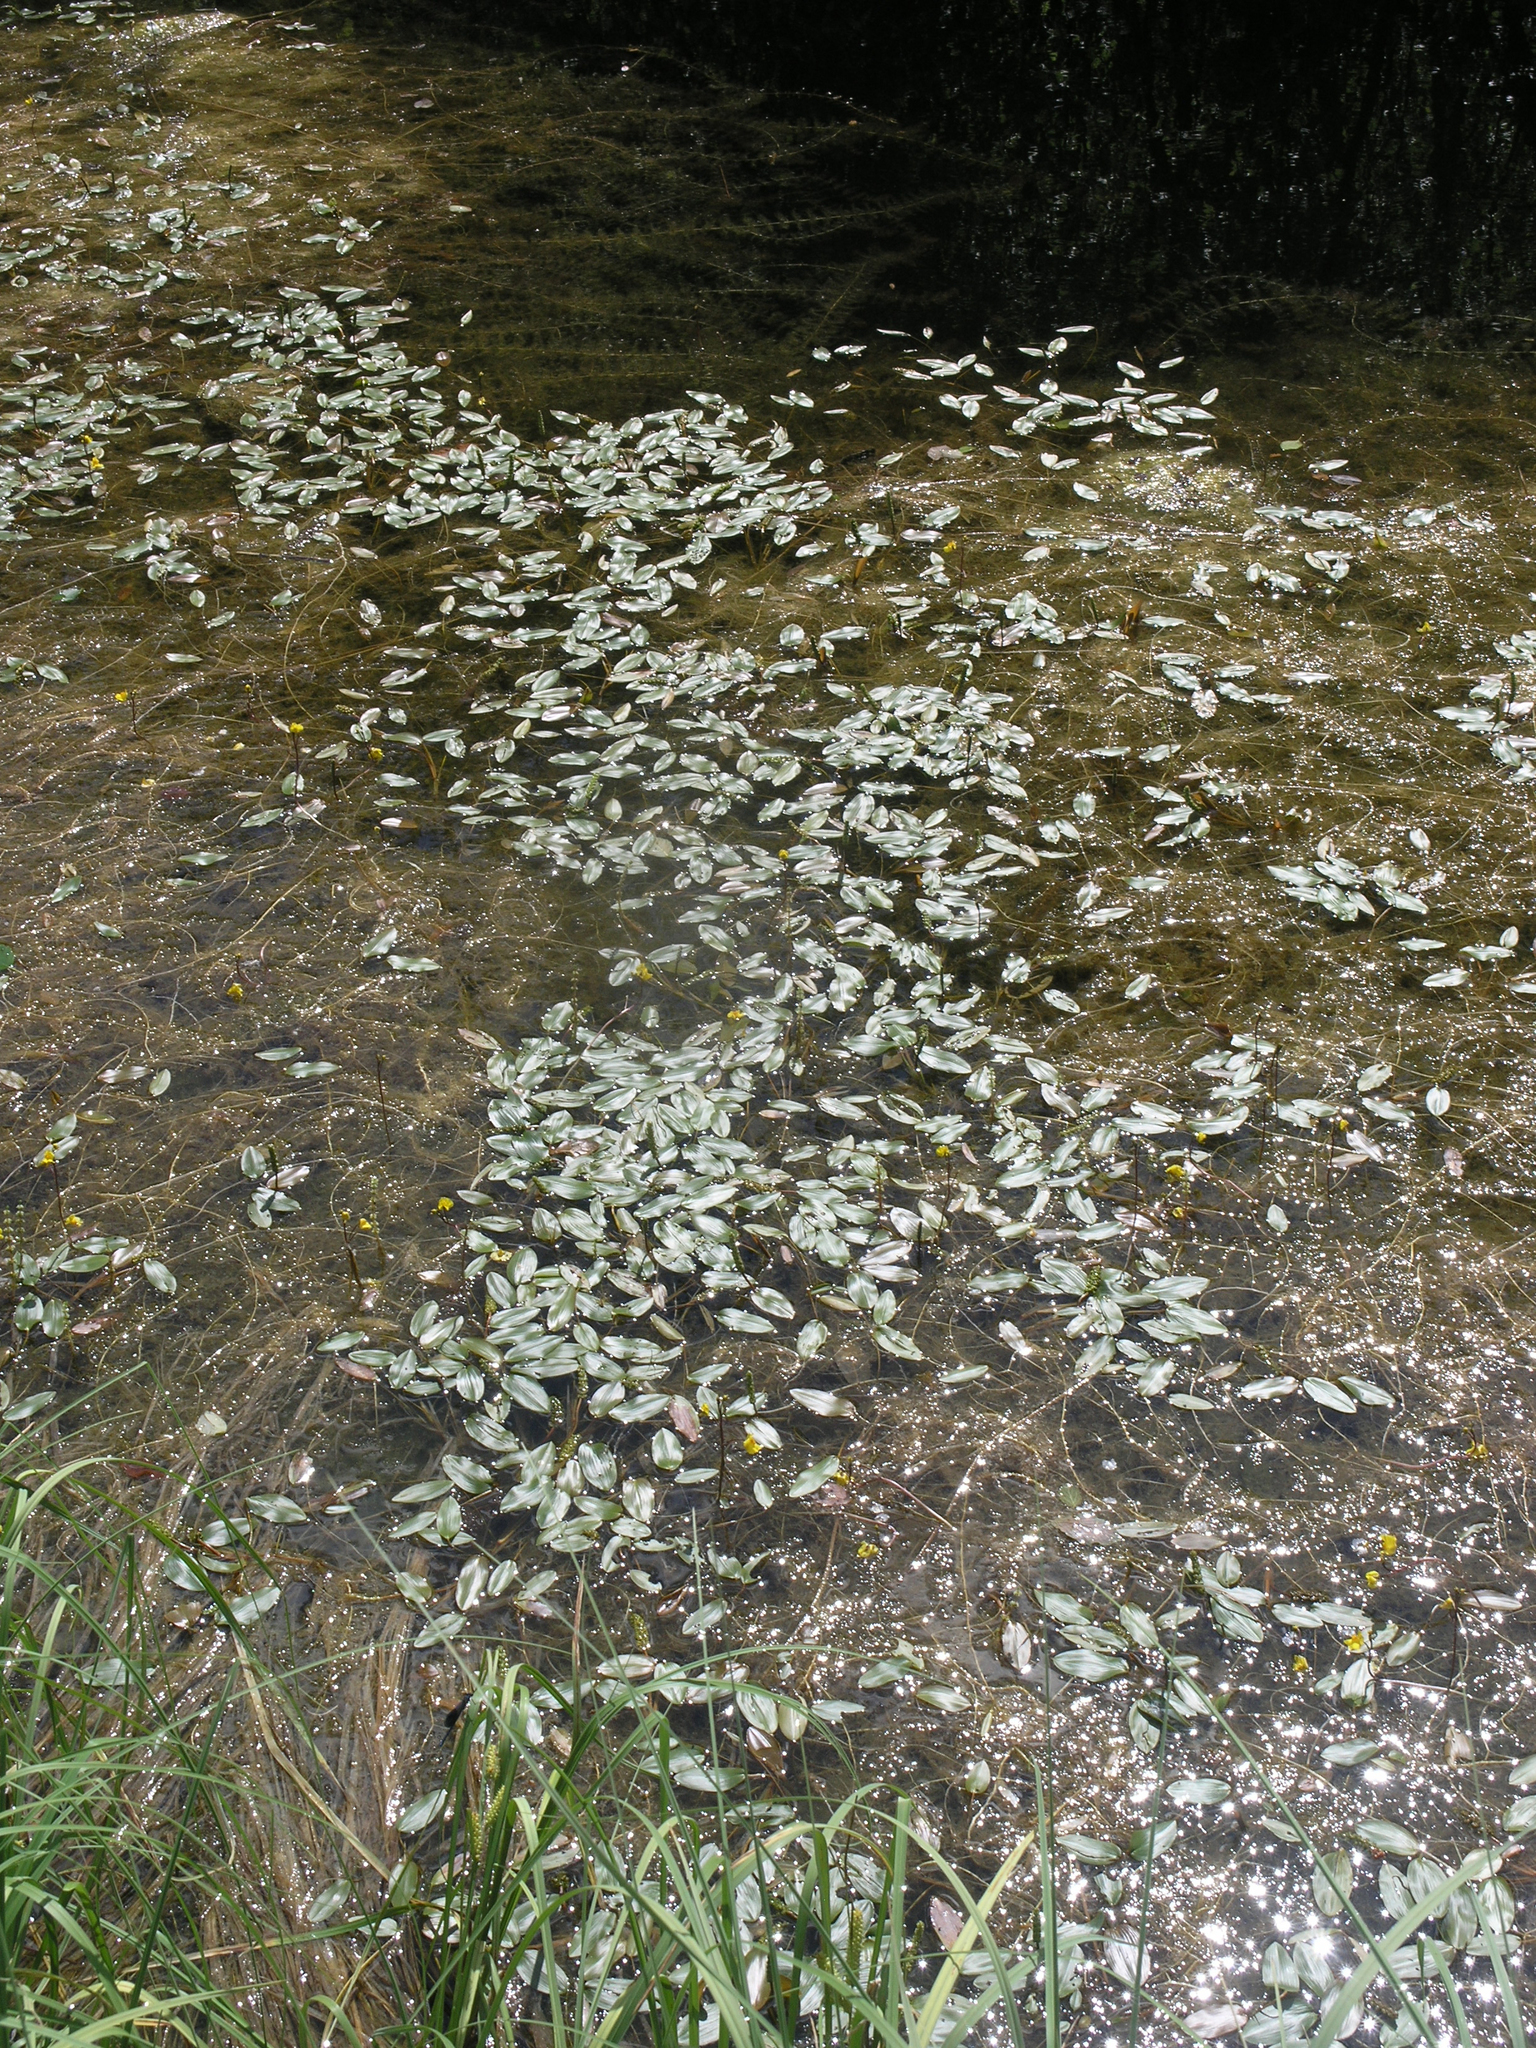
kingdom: Plantae
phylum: Tracheophyta
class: Liliopsida
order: Alismatales
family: Potamogetonaceae
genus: Potamogeton
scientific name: Potamogeton natans
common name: Broad-leaved pondweed
